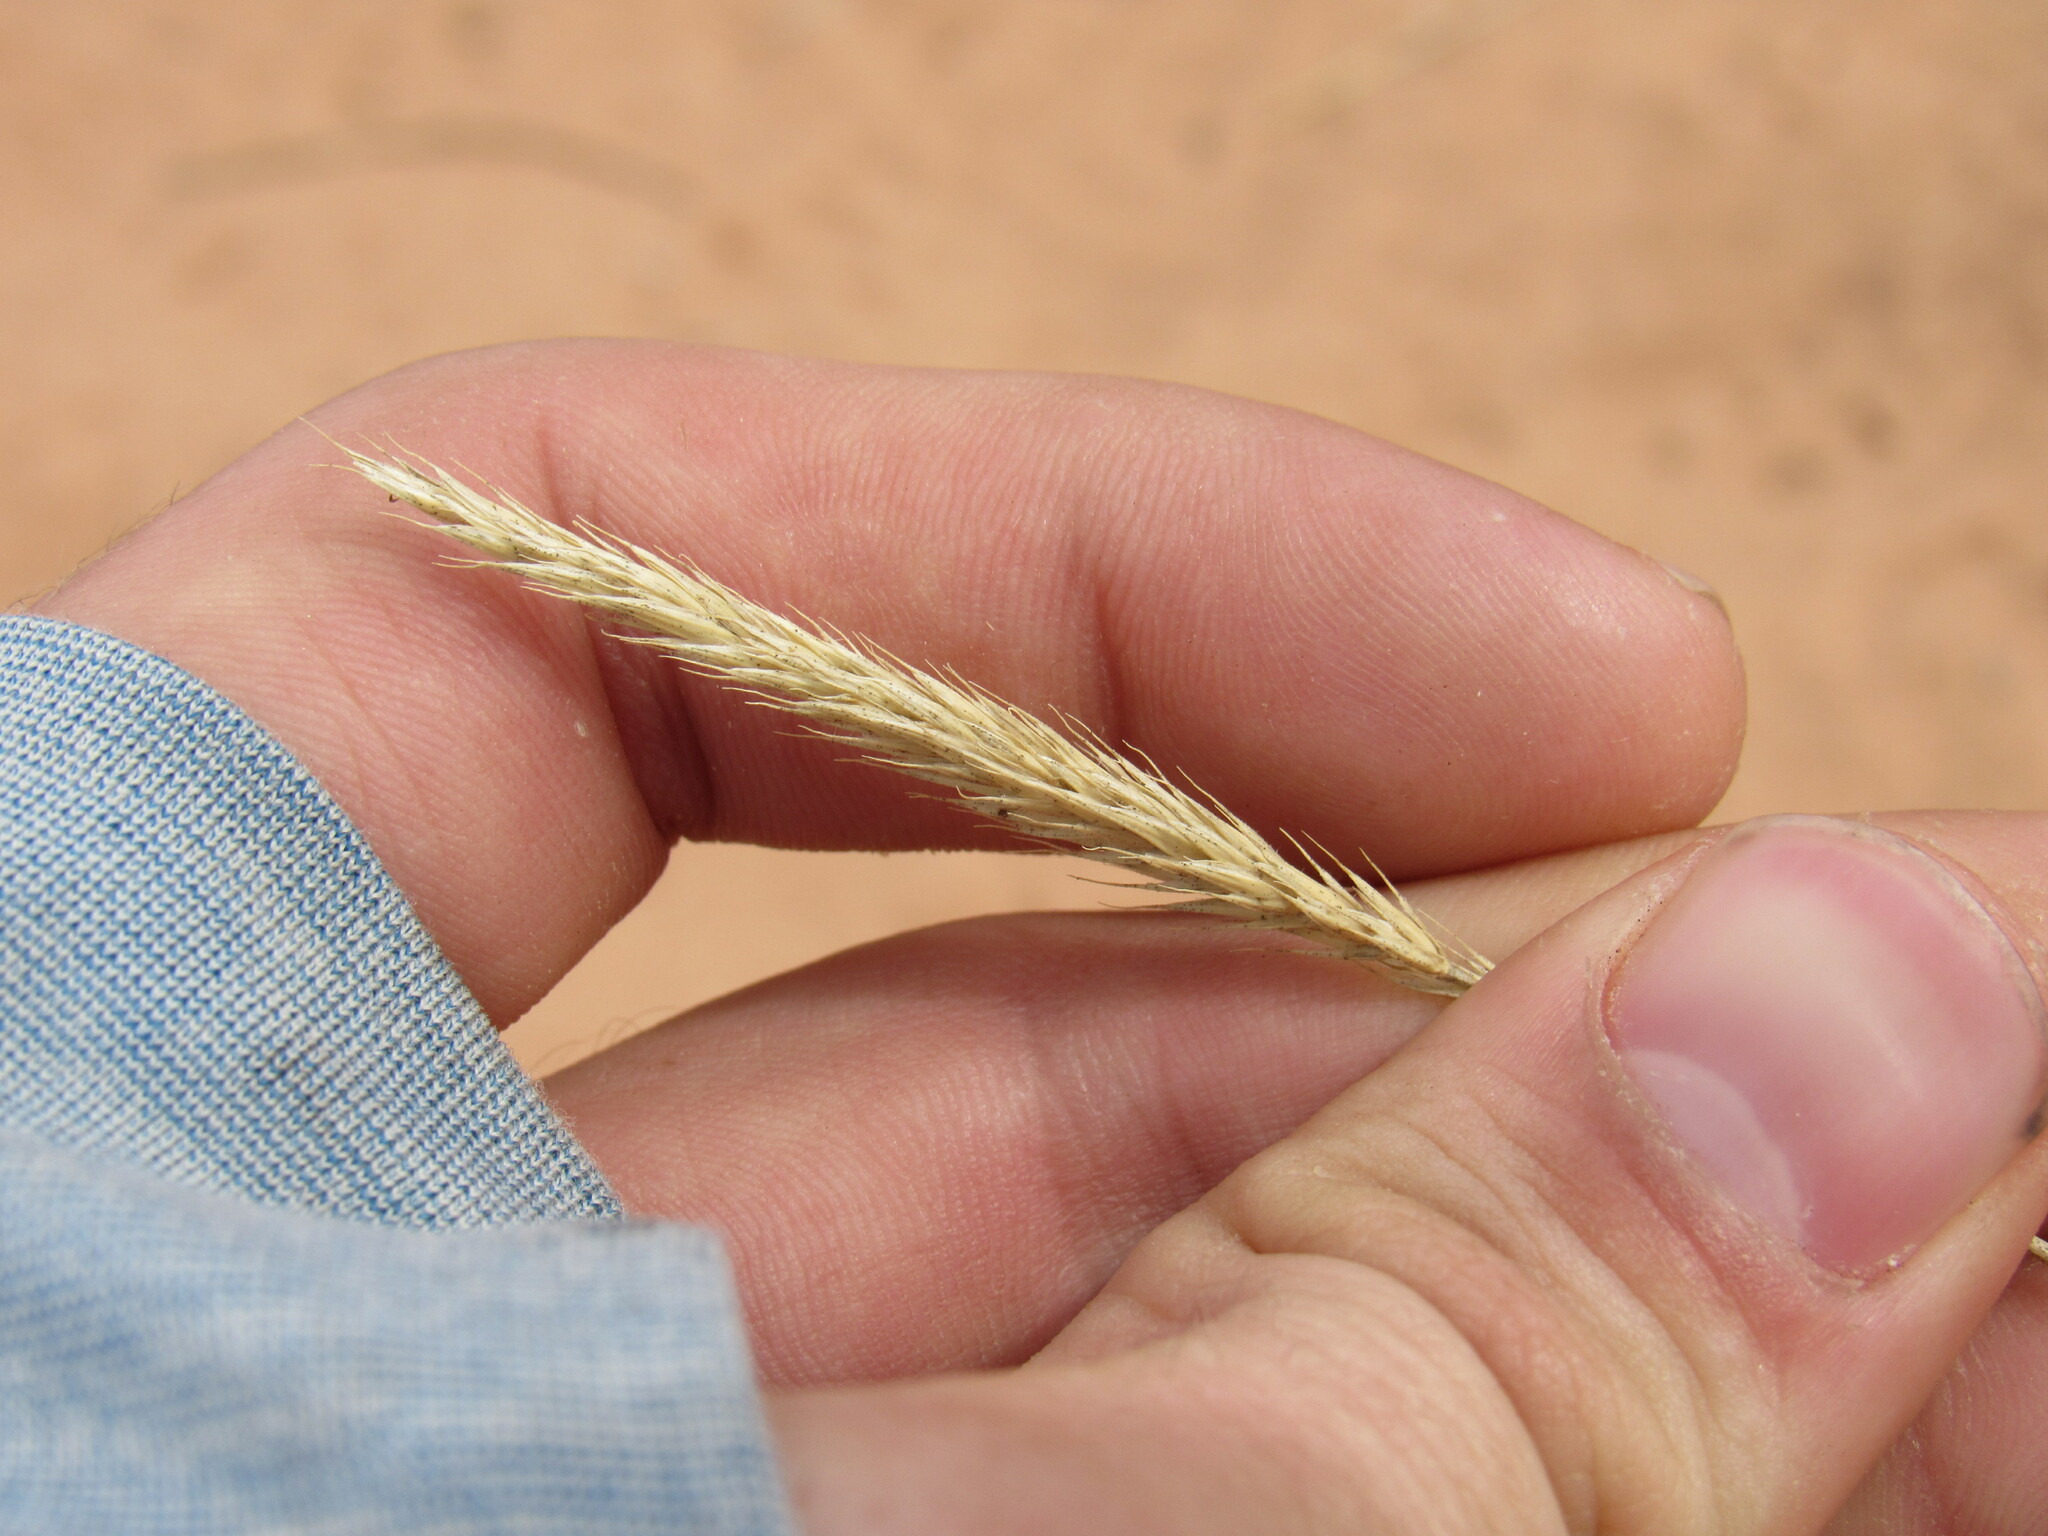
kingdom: Plantae
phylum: Tracheophyta
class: Liliopsida
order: Poales
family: Poaceae
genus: Agropyron
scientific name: Agropyron cristatum
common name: Crested wheatgrass
